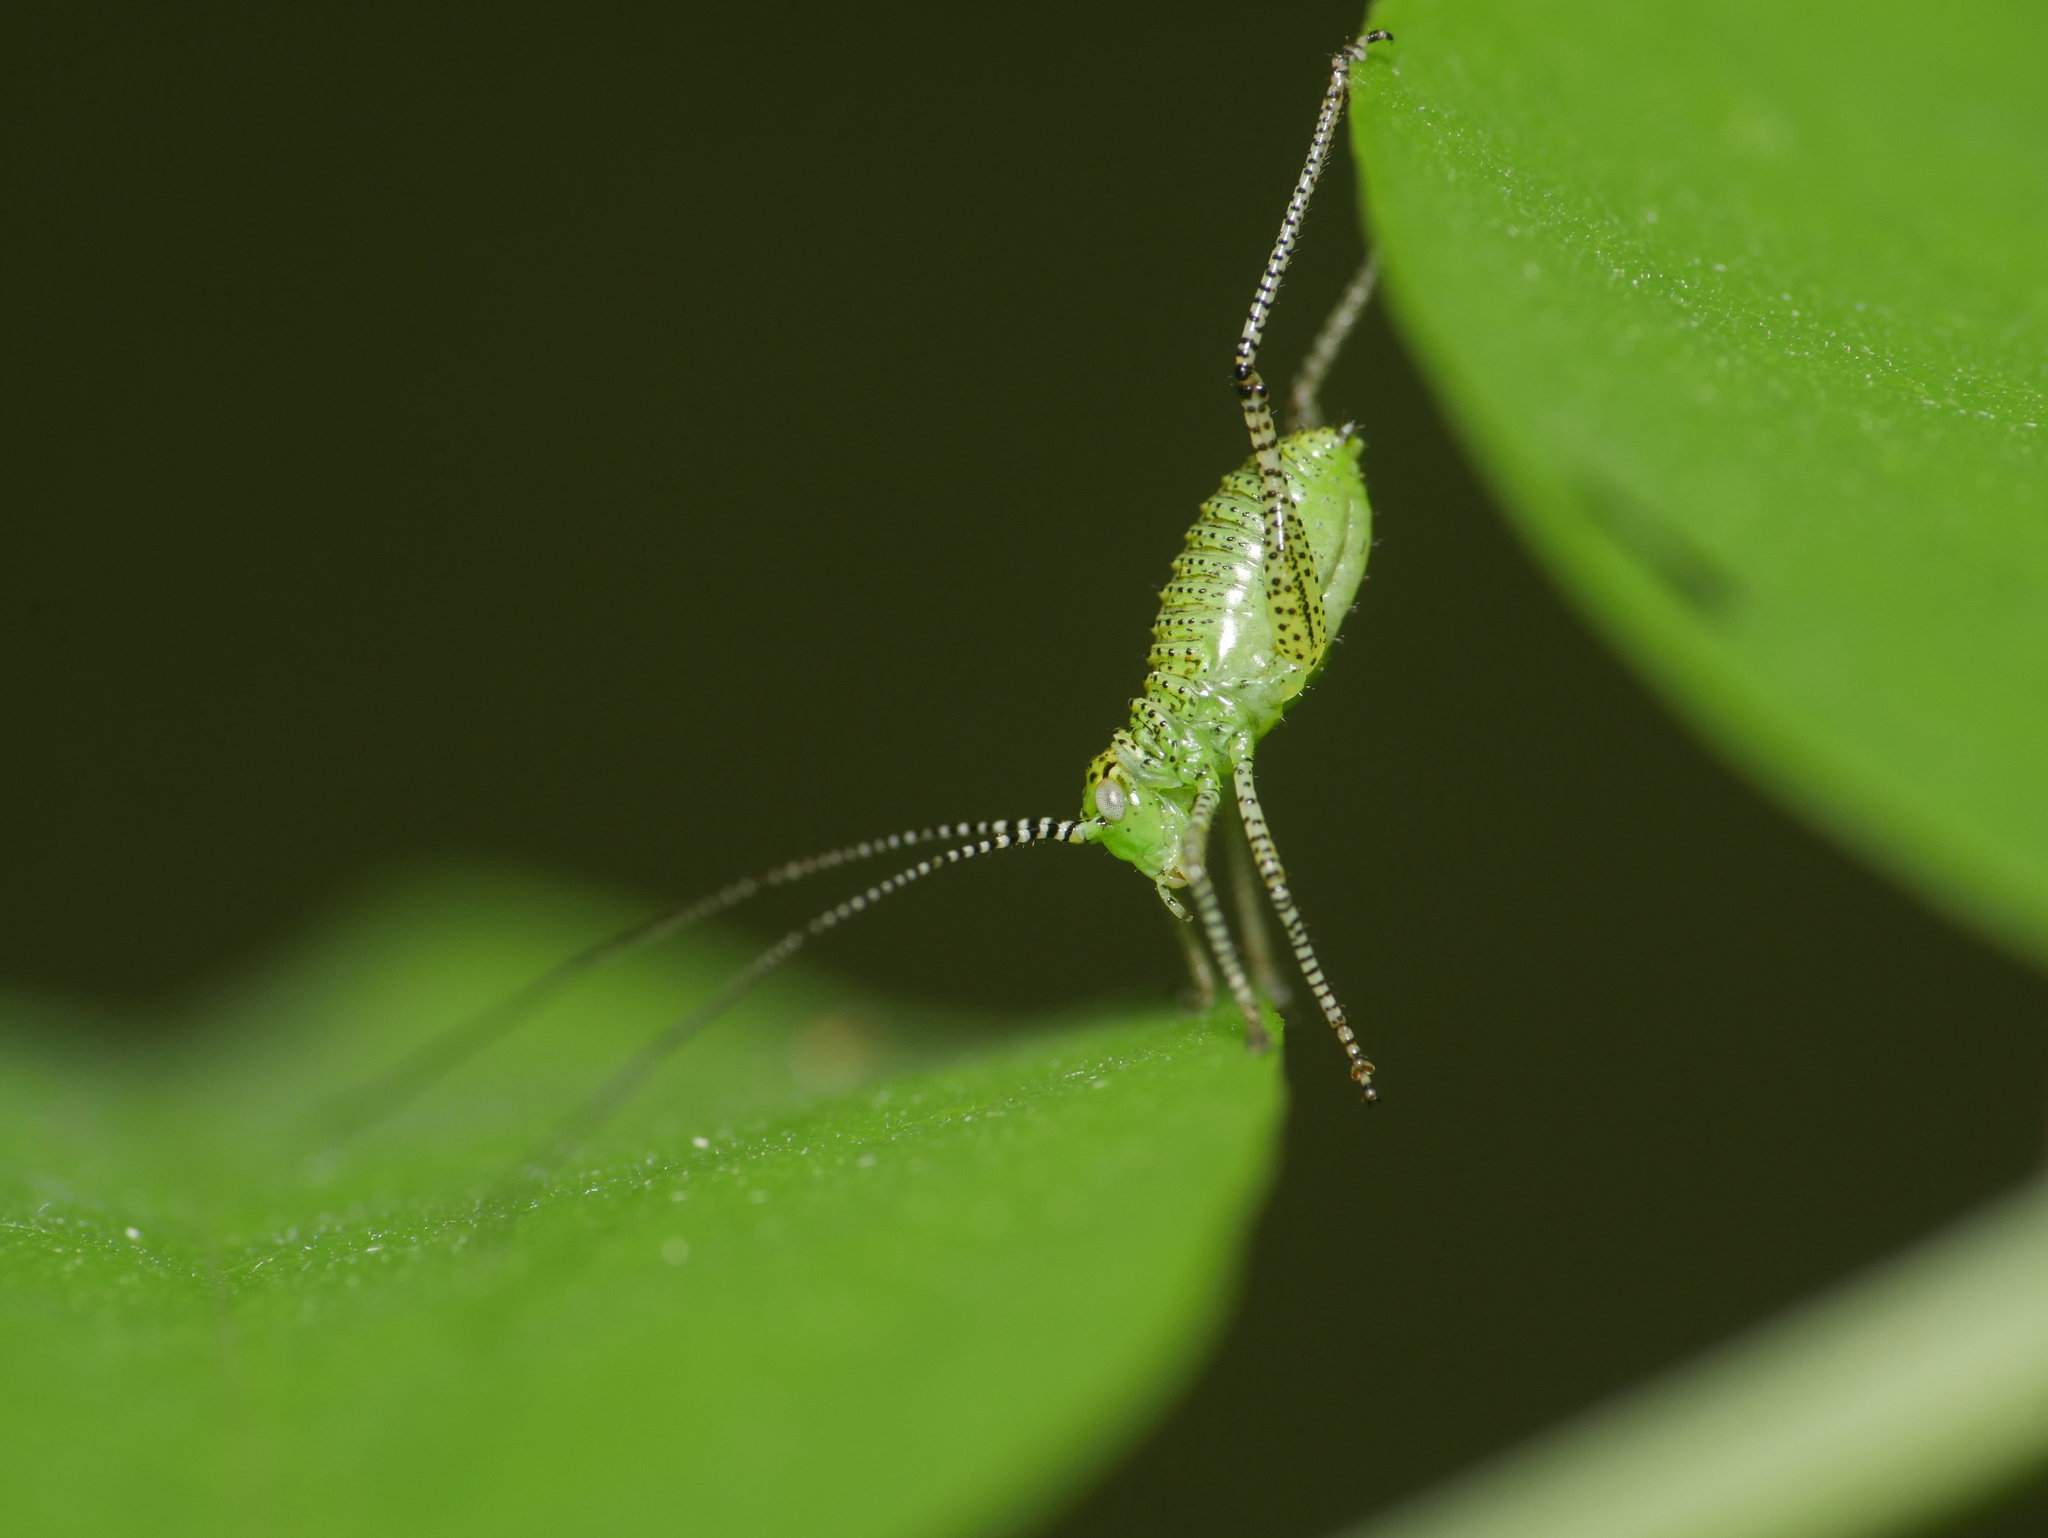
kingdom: Animalia
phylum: Arthropoda
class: Insecta
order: Orthoptera
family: Tettigoniidae
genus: Leptophyes
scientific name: Leptophyes punctatissima
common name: Speckled bush-cricket
